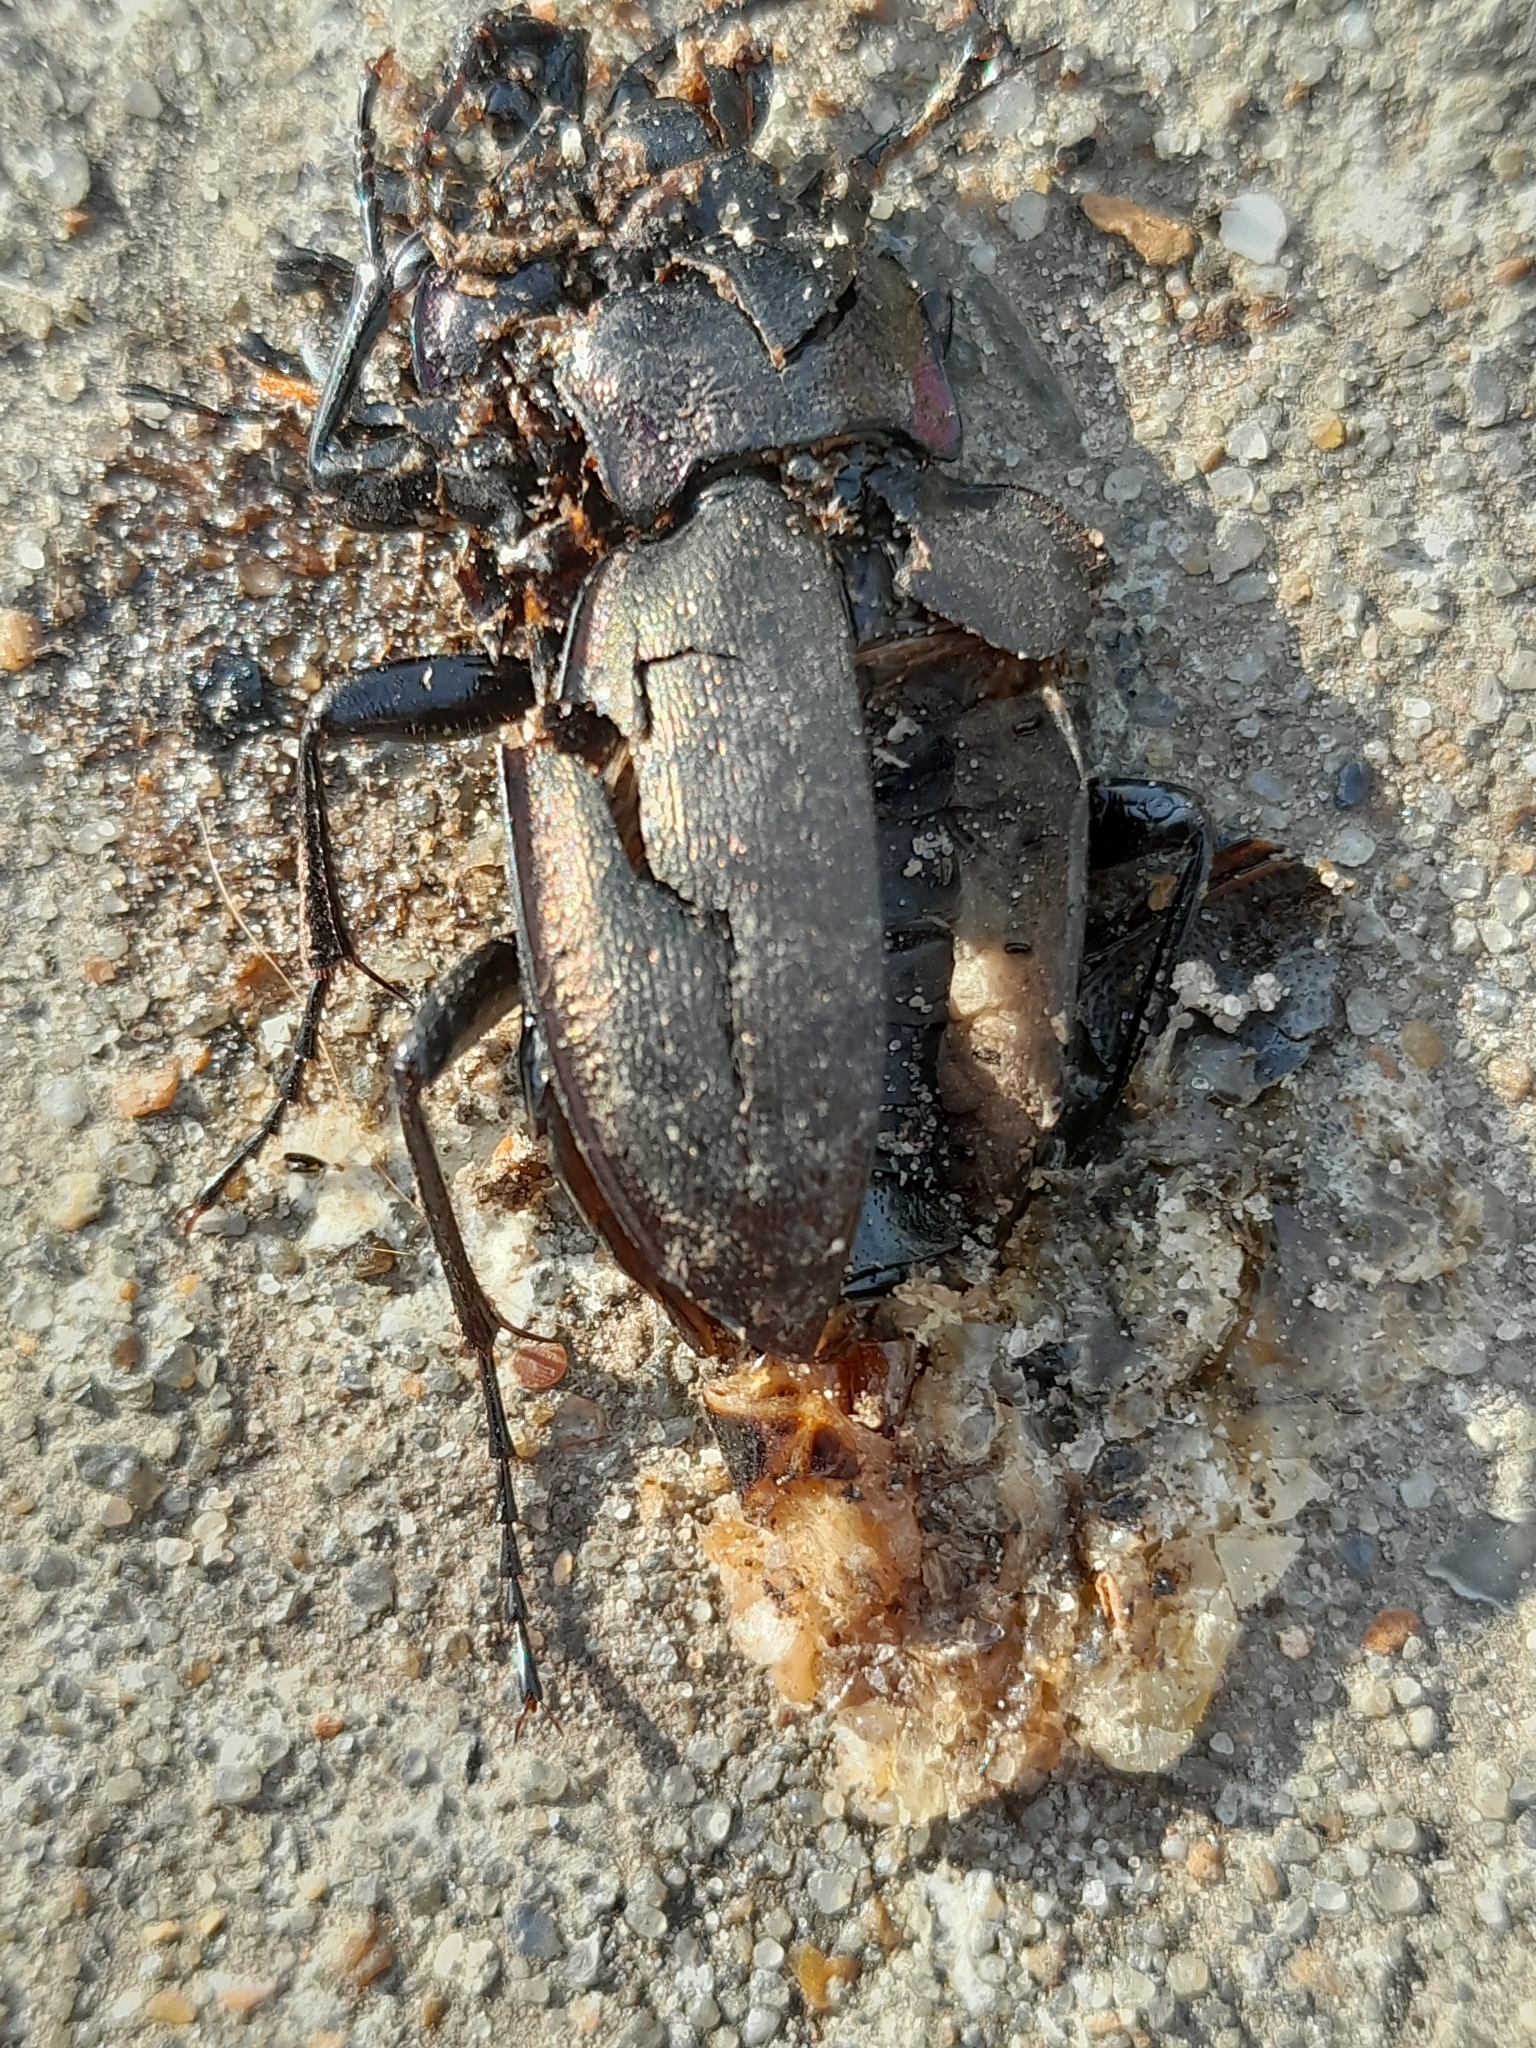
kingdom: Animalia
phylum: Arthropoda
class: Insecta
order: Coleoptera
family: Carabidae
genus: Carabus
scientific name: Carabus nemoralis
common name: European ground beetle
